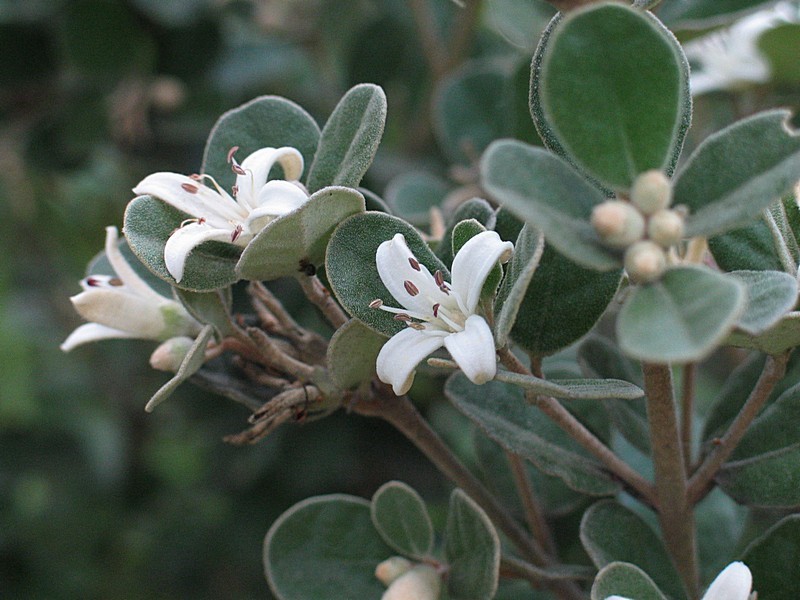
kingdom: Plantae
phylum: Tracheophyta
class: Magnoliopsida
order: Sapindales
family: Rutaceae
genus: Correa
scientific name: Correa alba
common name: White correa
